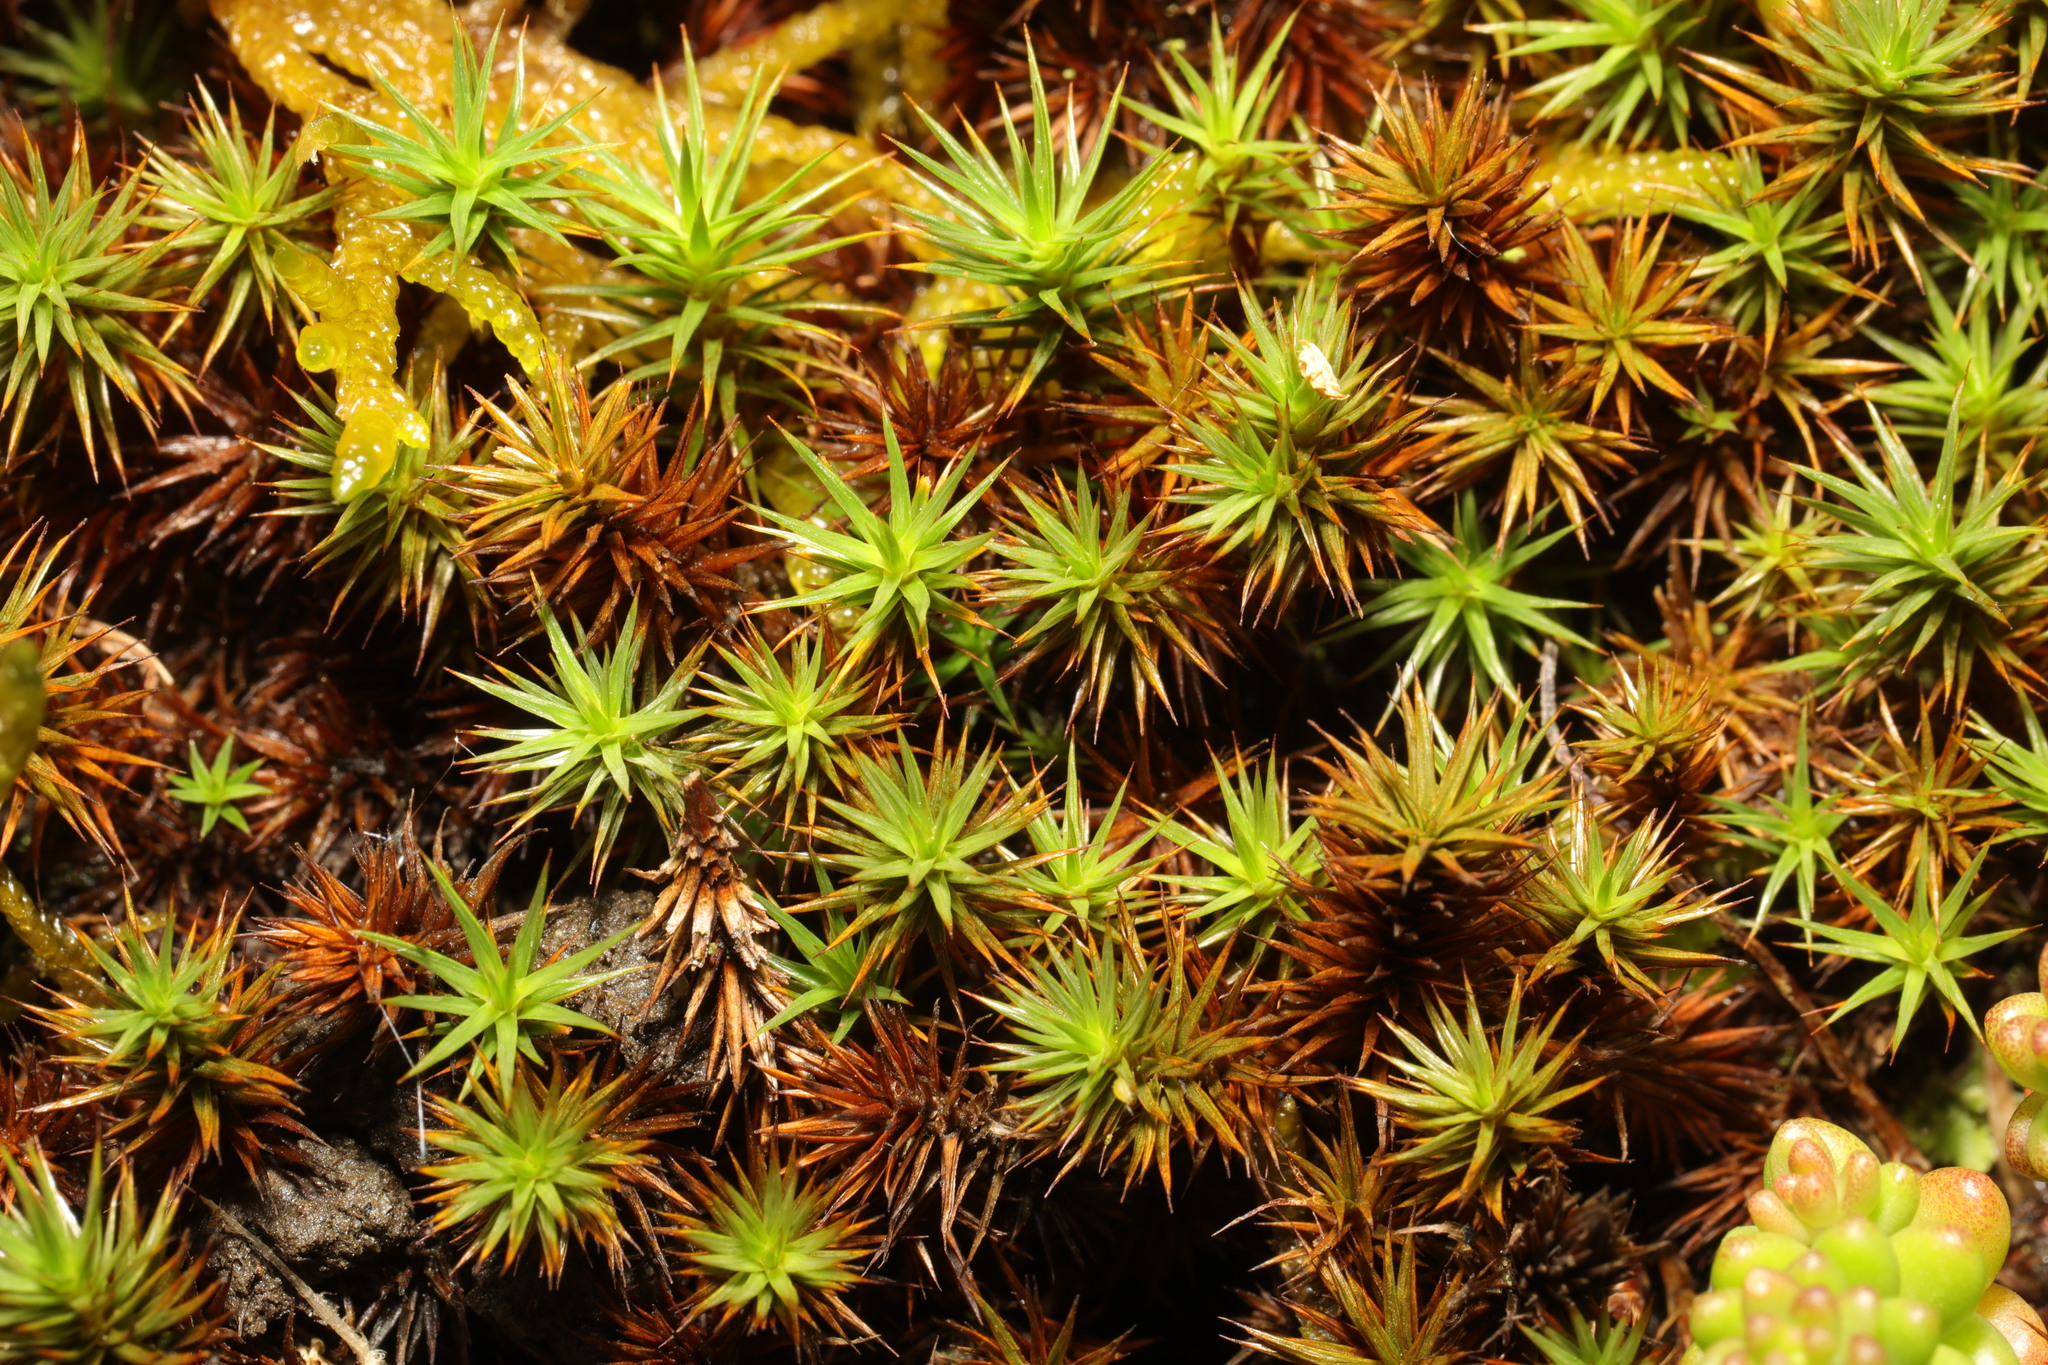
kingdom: Plantae
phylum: Bryophyta
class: Polytrichopsida
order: Polytrichales
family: Polytrichaceae
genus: Polytrichum
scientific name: Polytrichum juniperinum
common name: Juniper haircap moss
